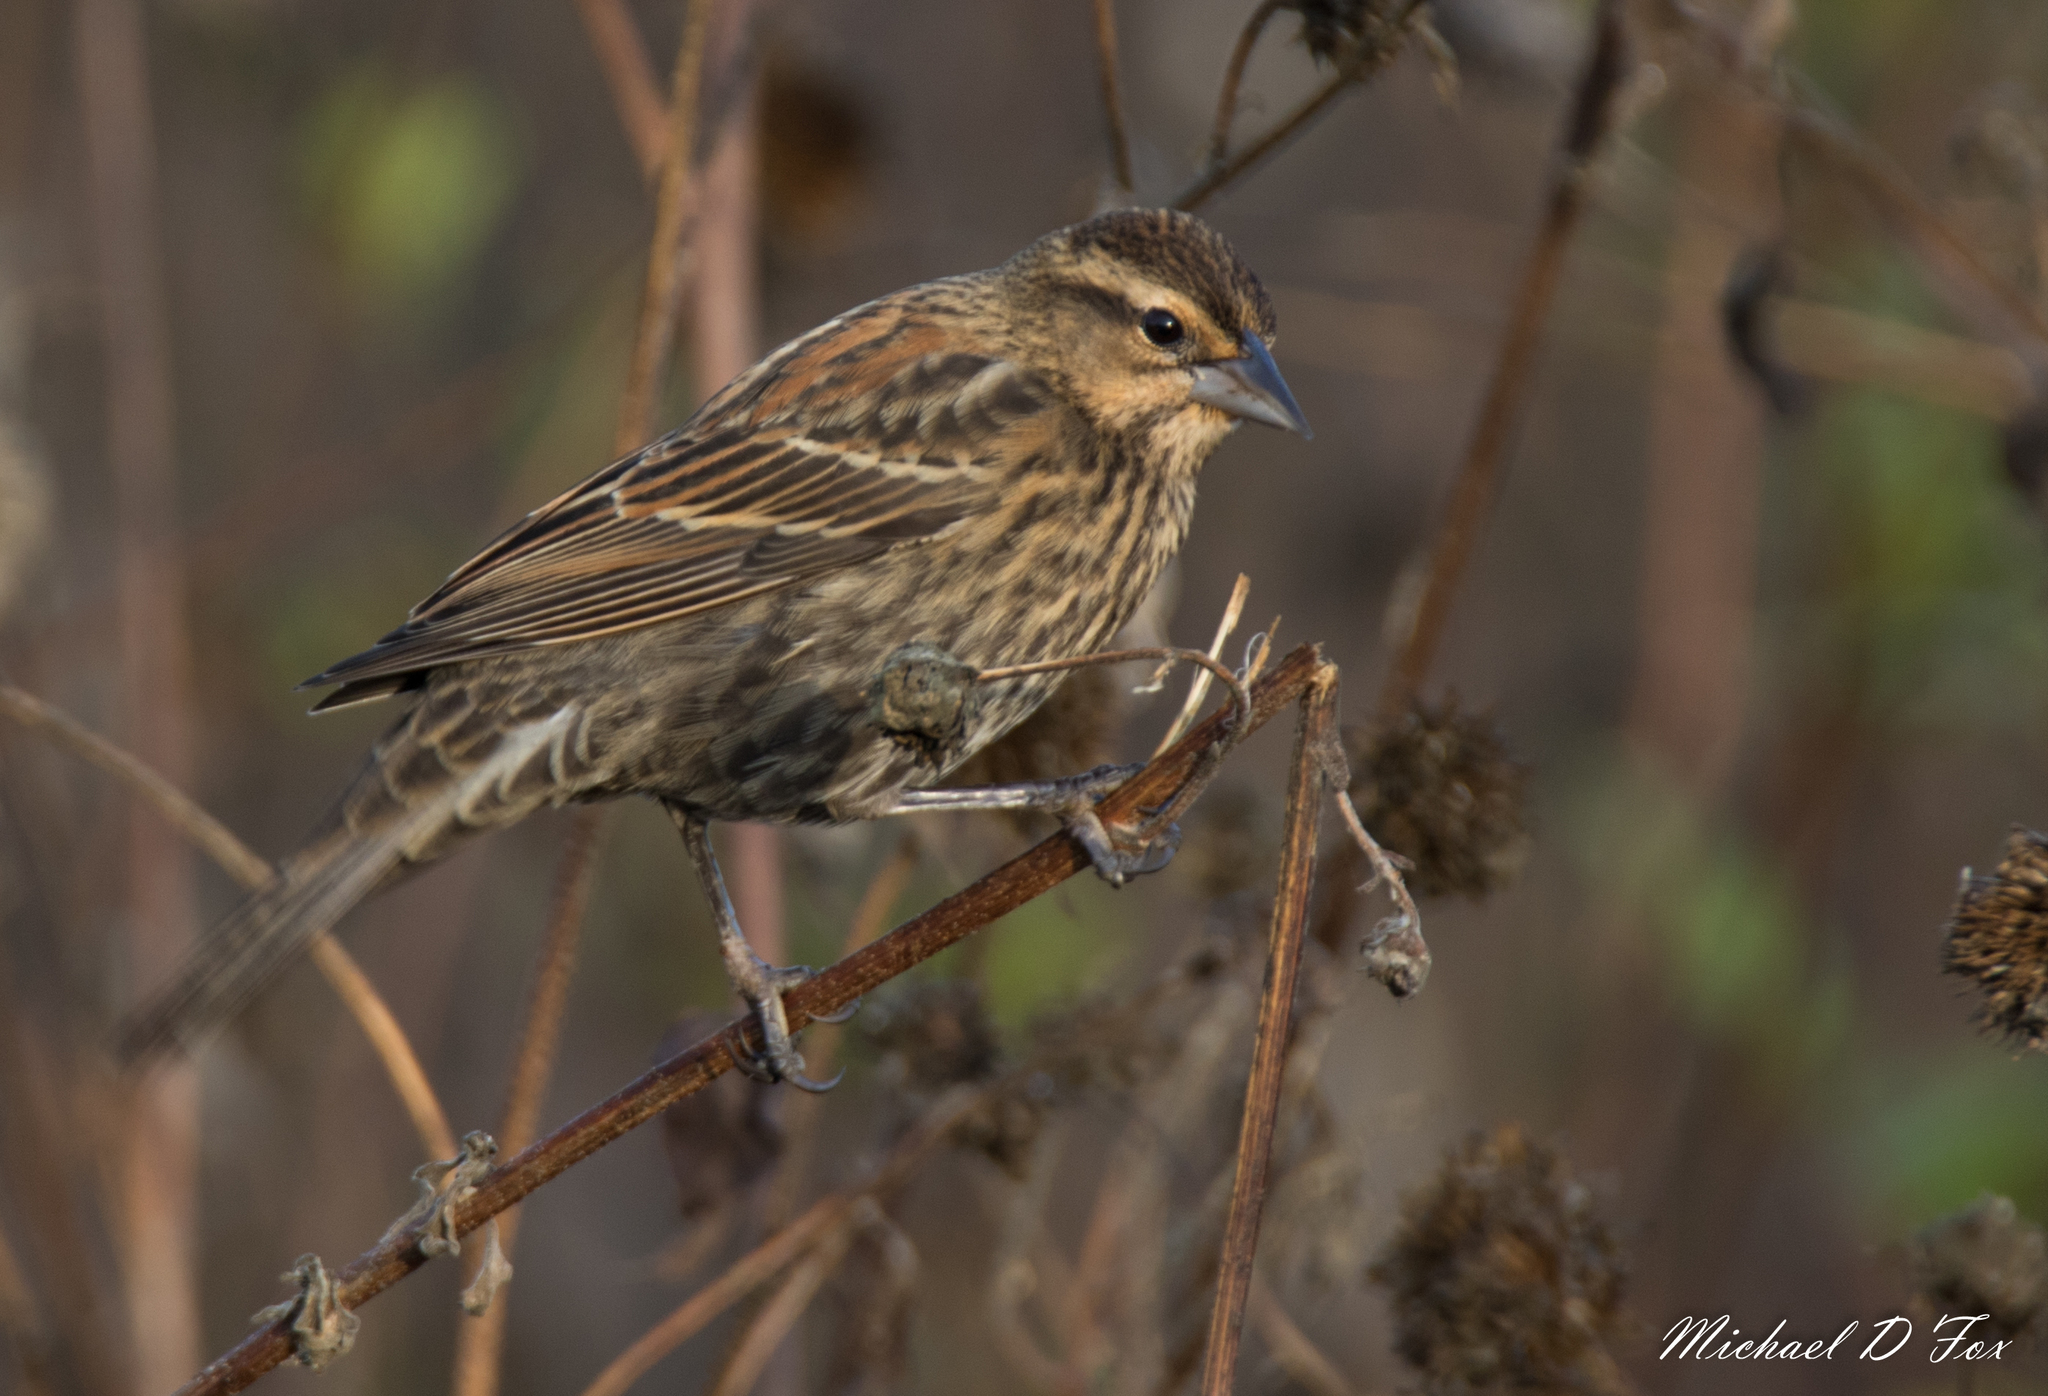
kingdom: Animalia
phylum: Chordata
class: Aves
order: Passeriformes
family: Icteridae
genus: Agelaius
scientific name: Agelaius phoeniceus
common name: Red-winged blackbird
